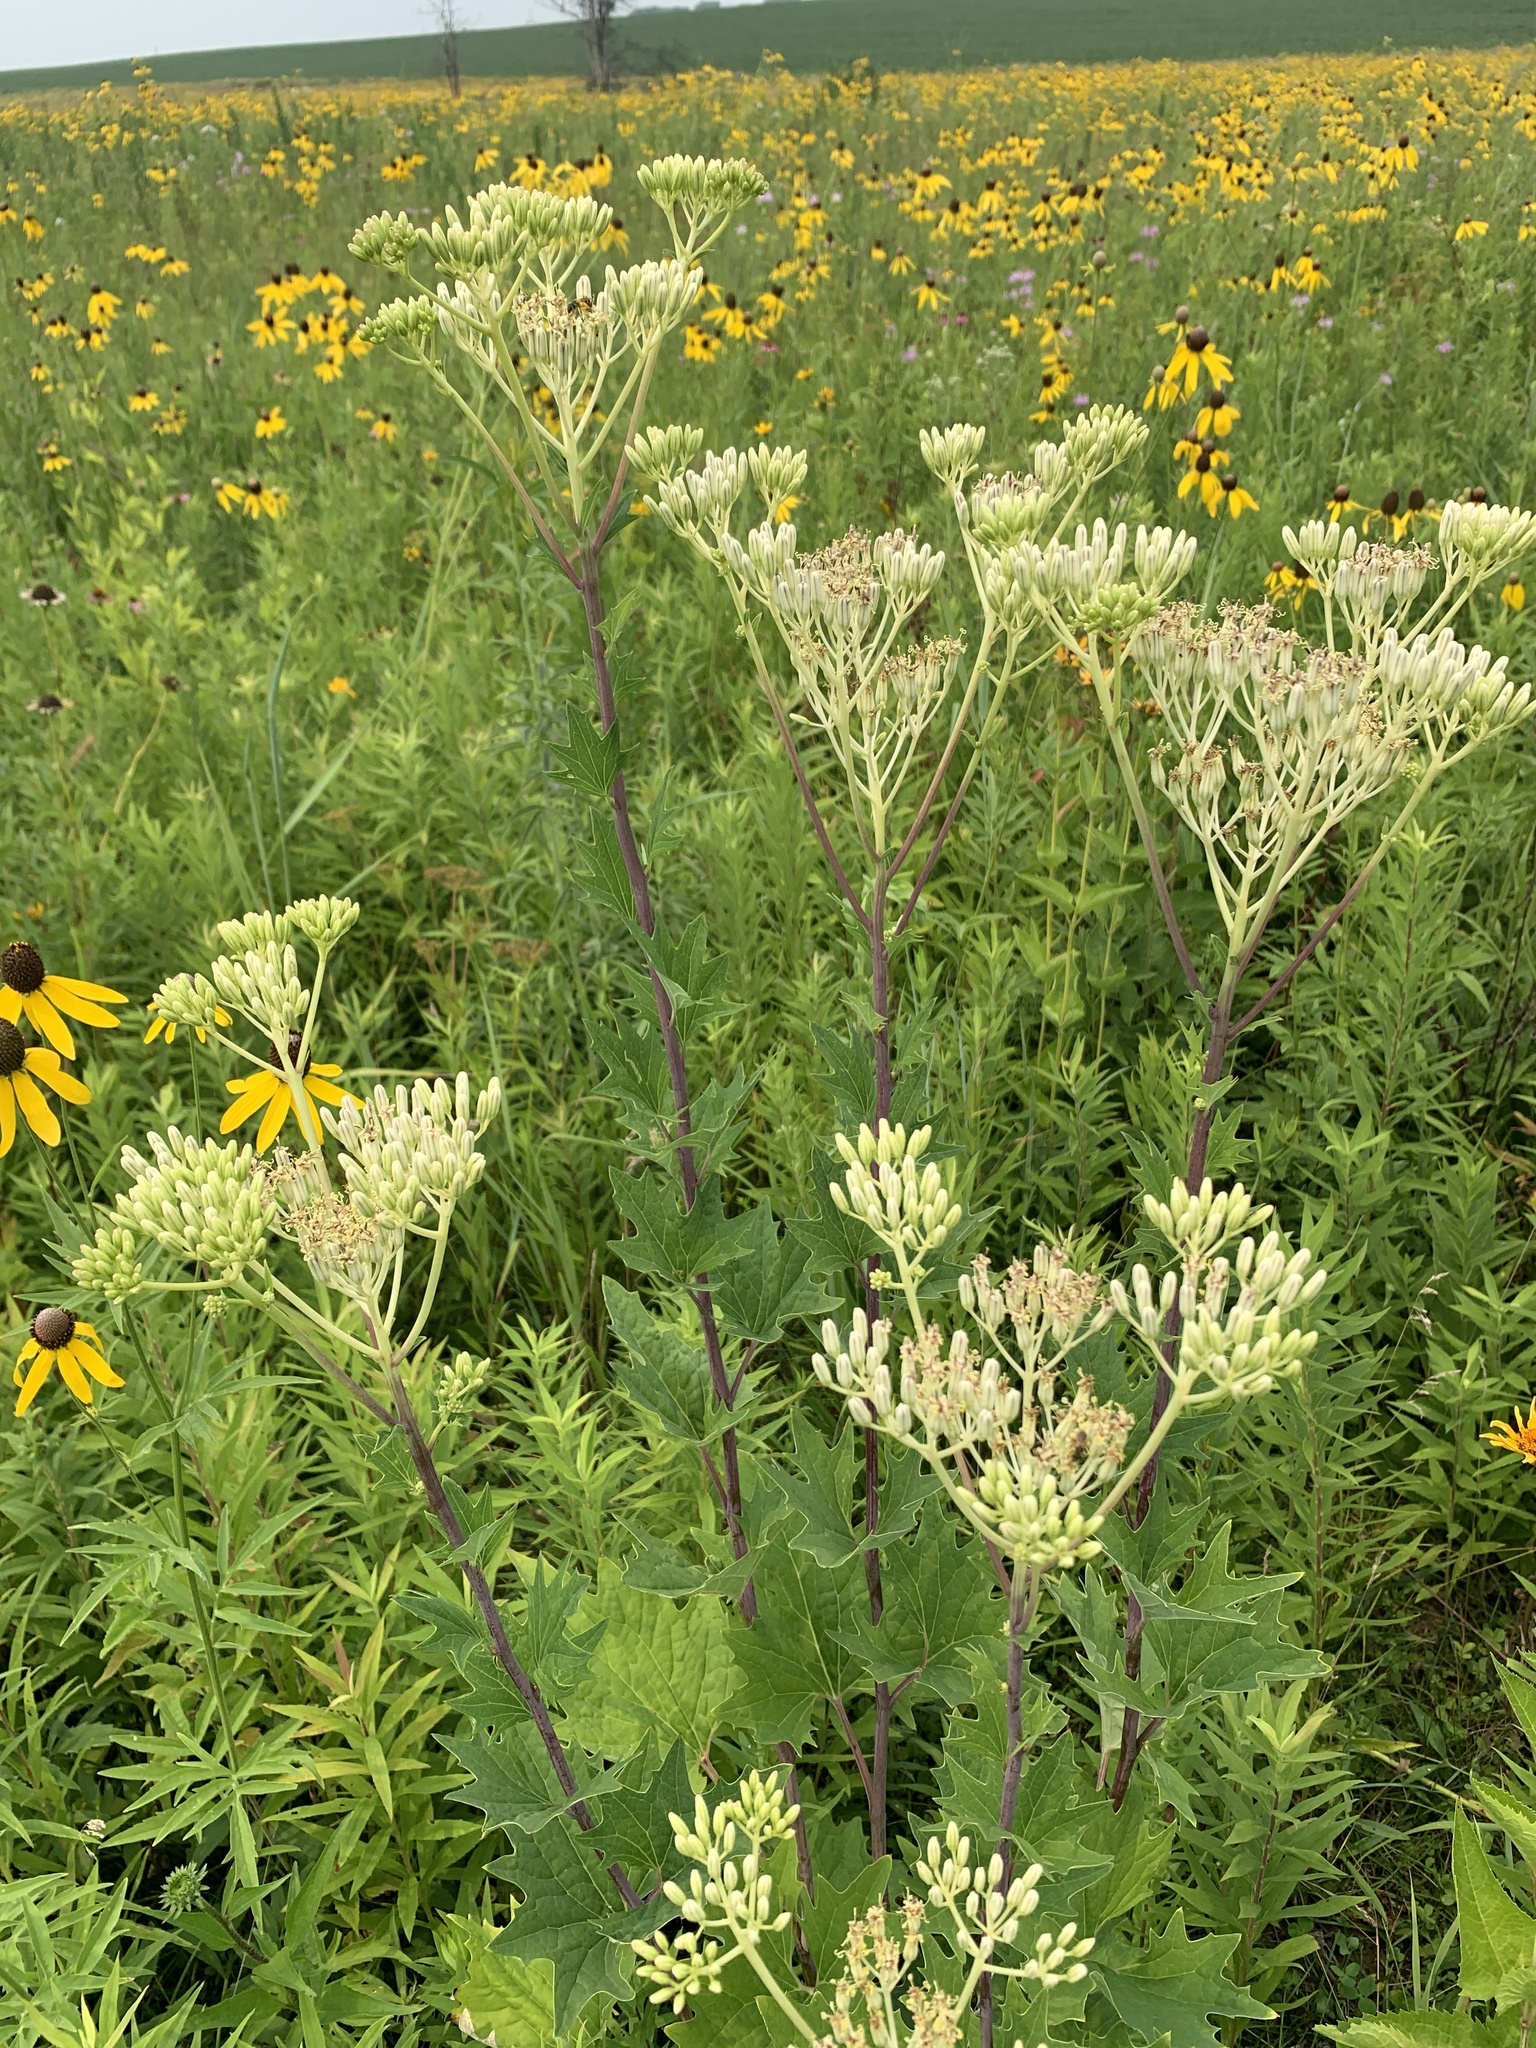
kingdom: Plantae
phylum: Tracheophyta
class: Magnoliopsida
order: Asterales
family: Asteraceae
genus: Arnoglossum
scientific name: Arnoglossum atriplicifolium
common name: Pale indian-plantain
